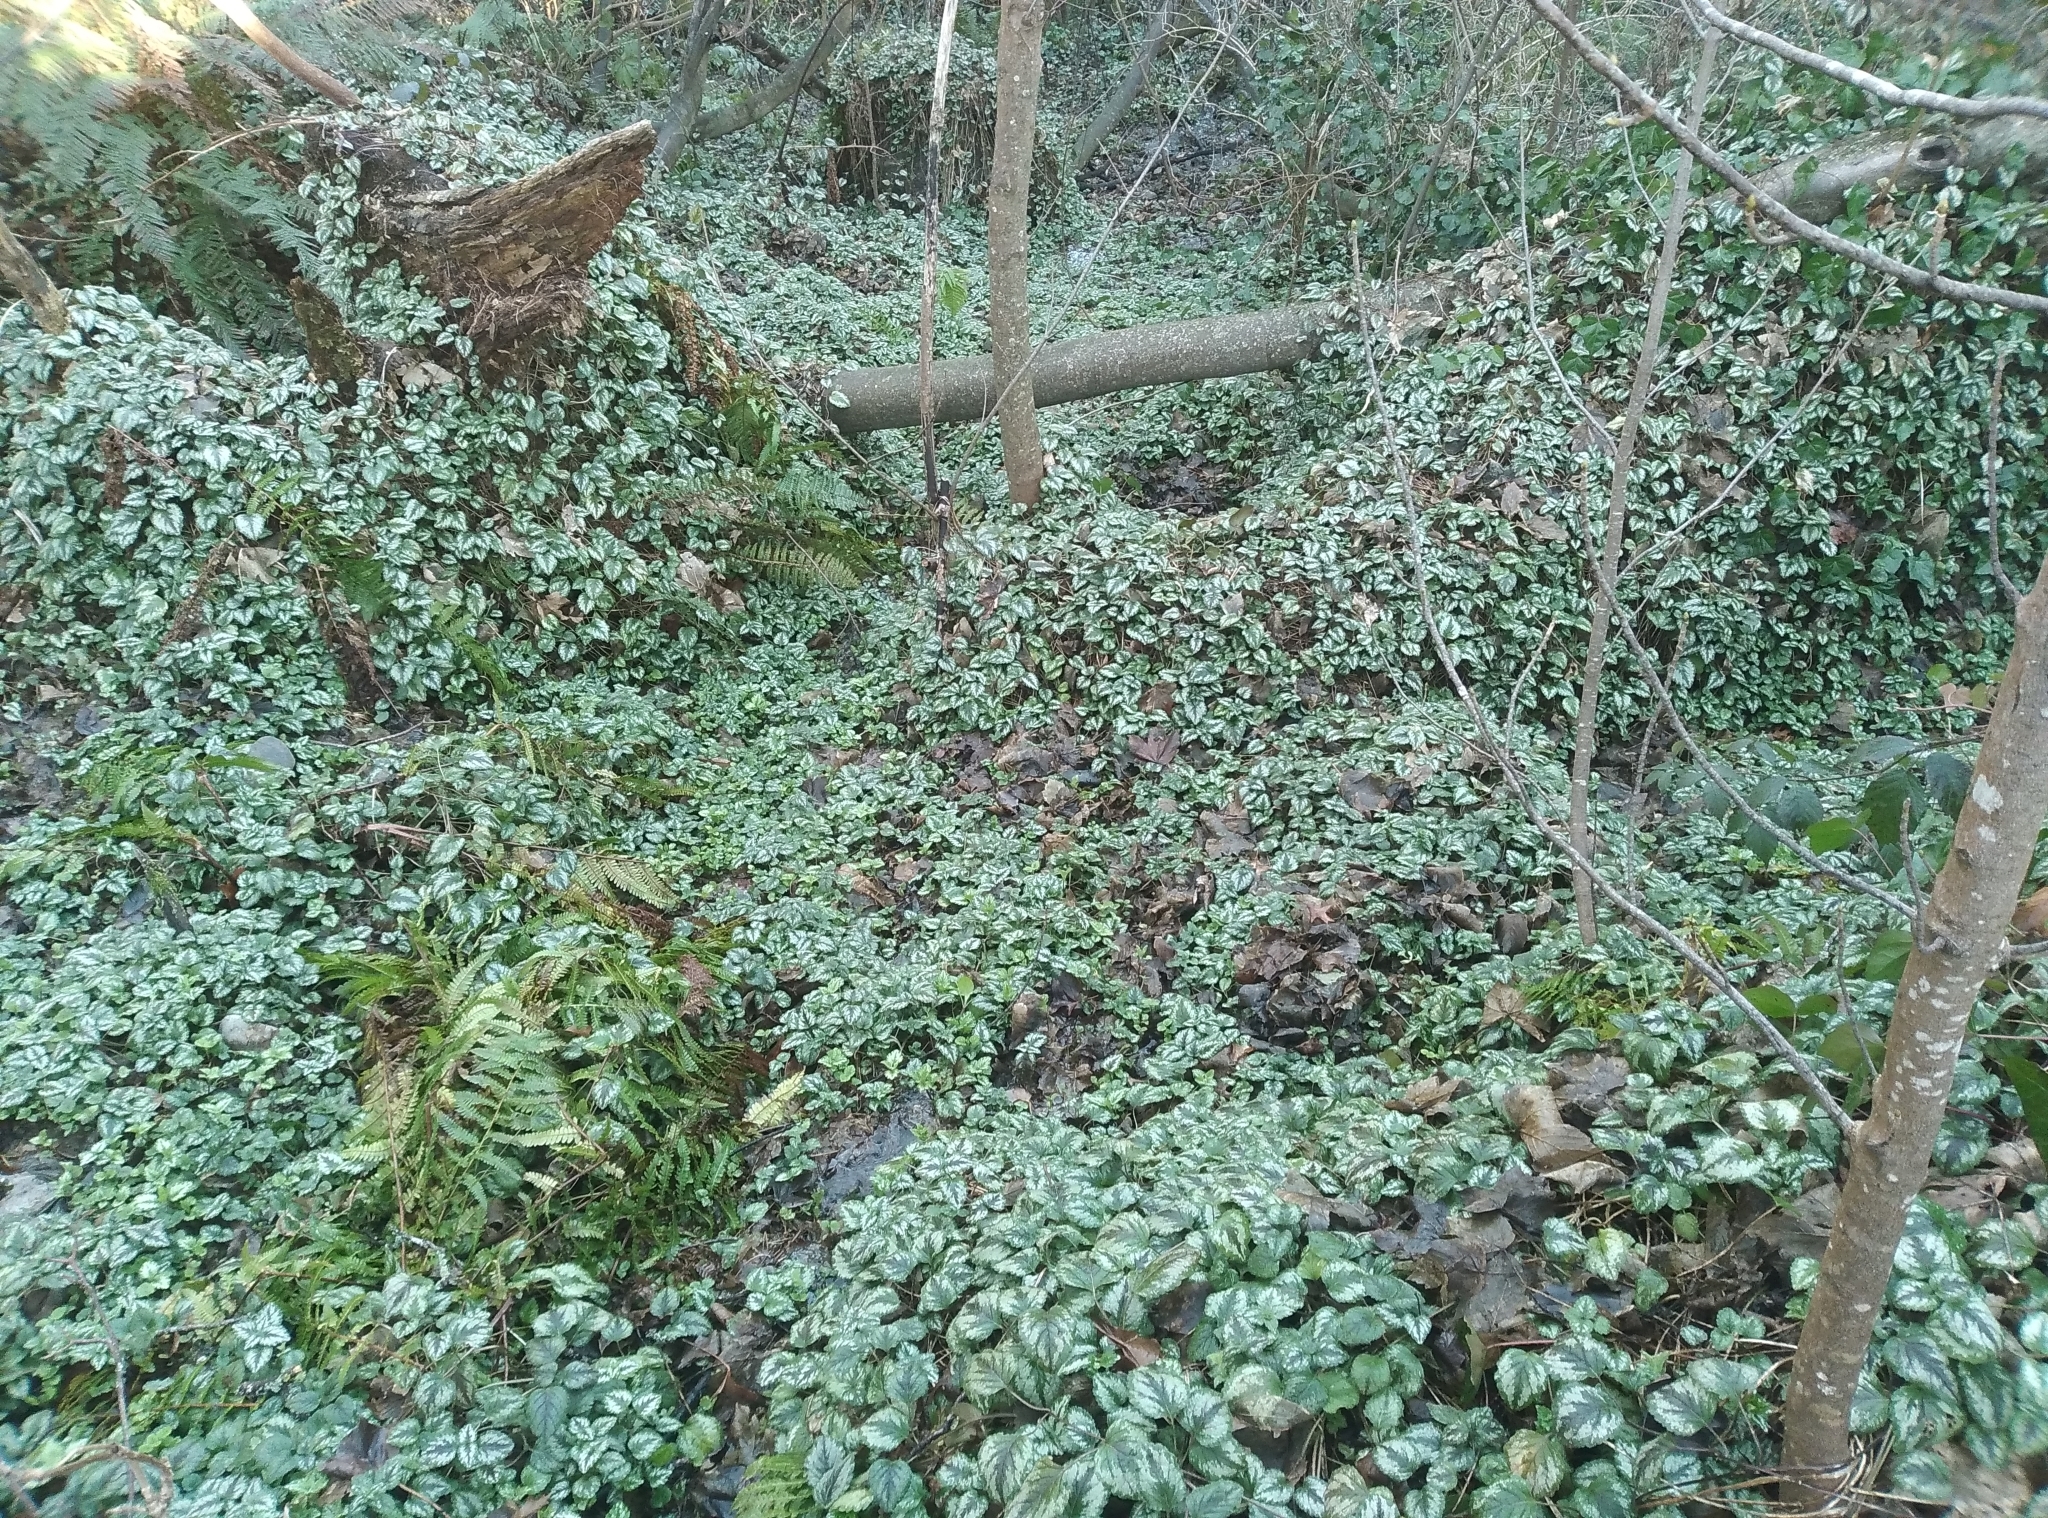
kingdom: Plantae
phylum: Tracheophyta
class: Magnoliopsida
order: Lamiales
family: Lamiaceae
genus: Lamium
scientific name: Lamium galeobdolon
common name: Yellow archangel
